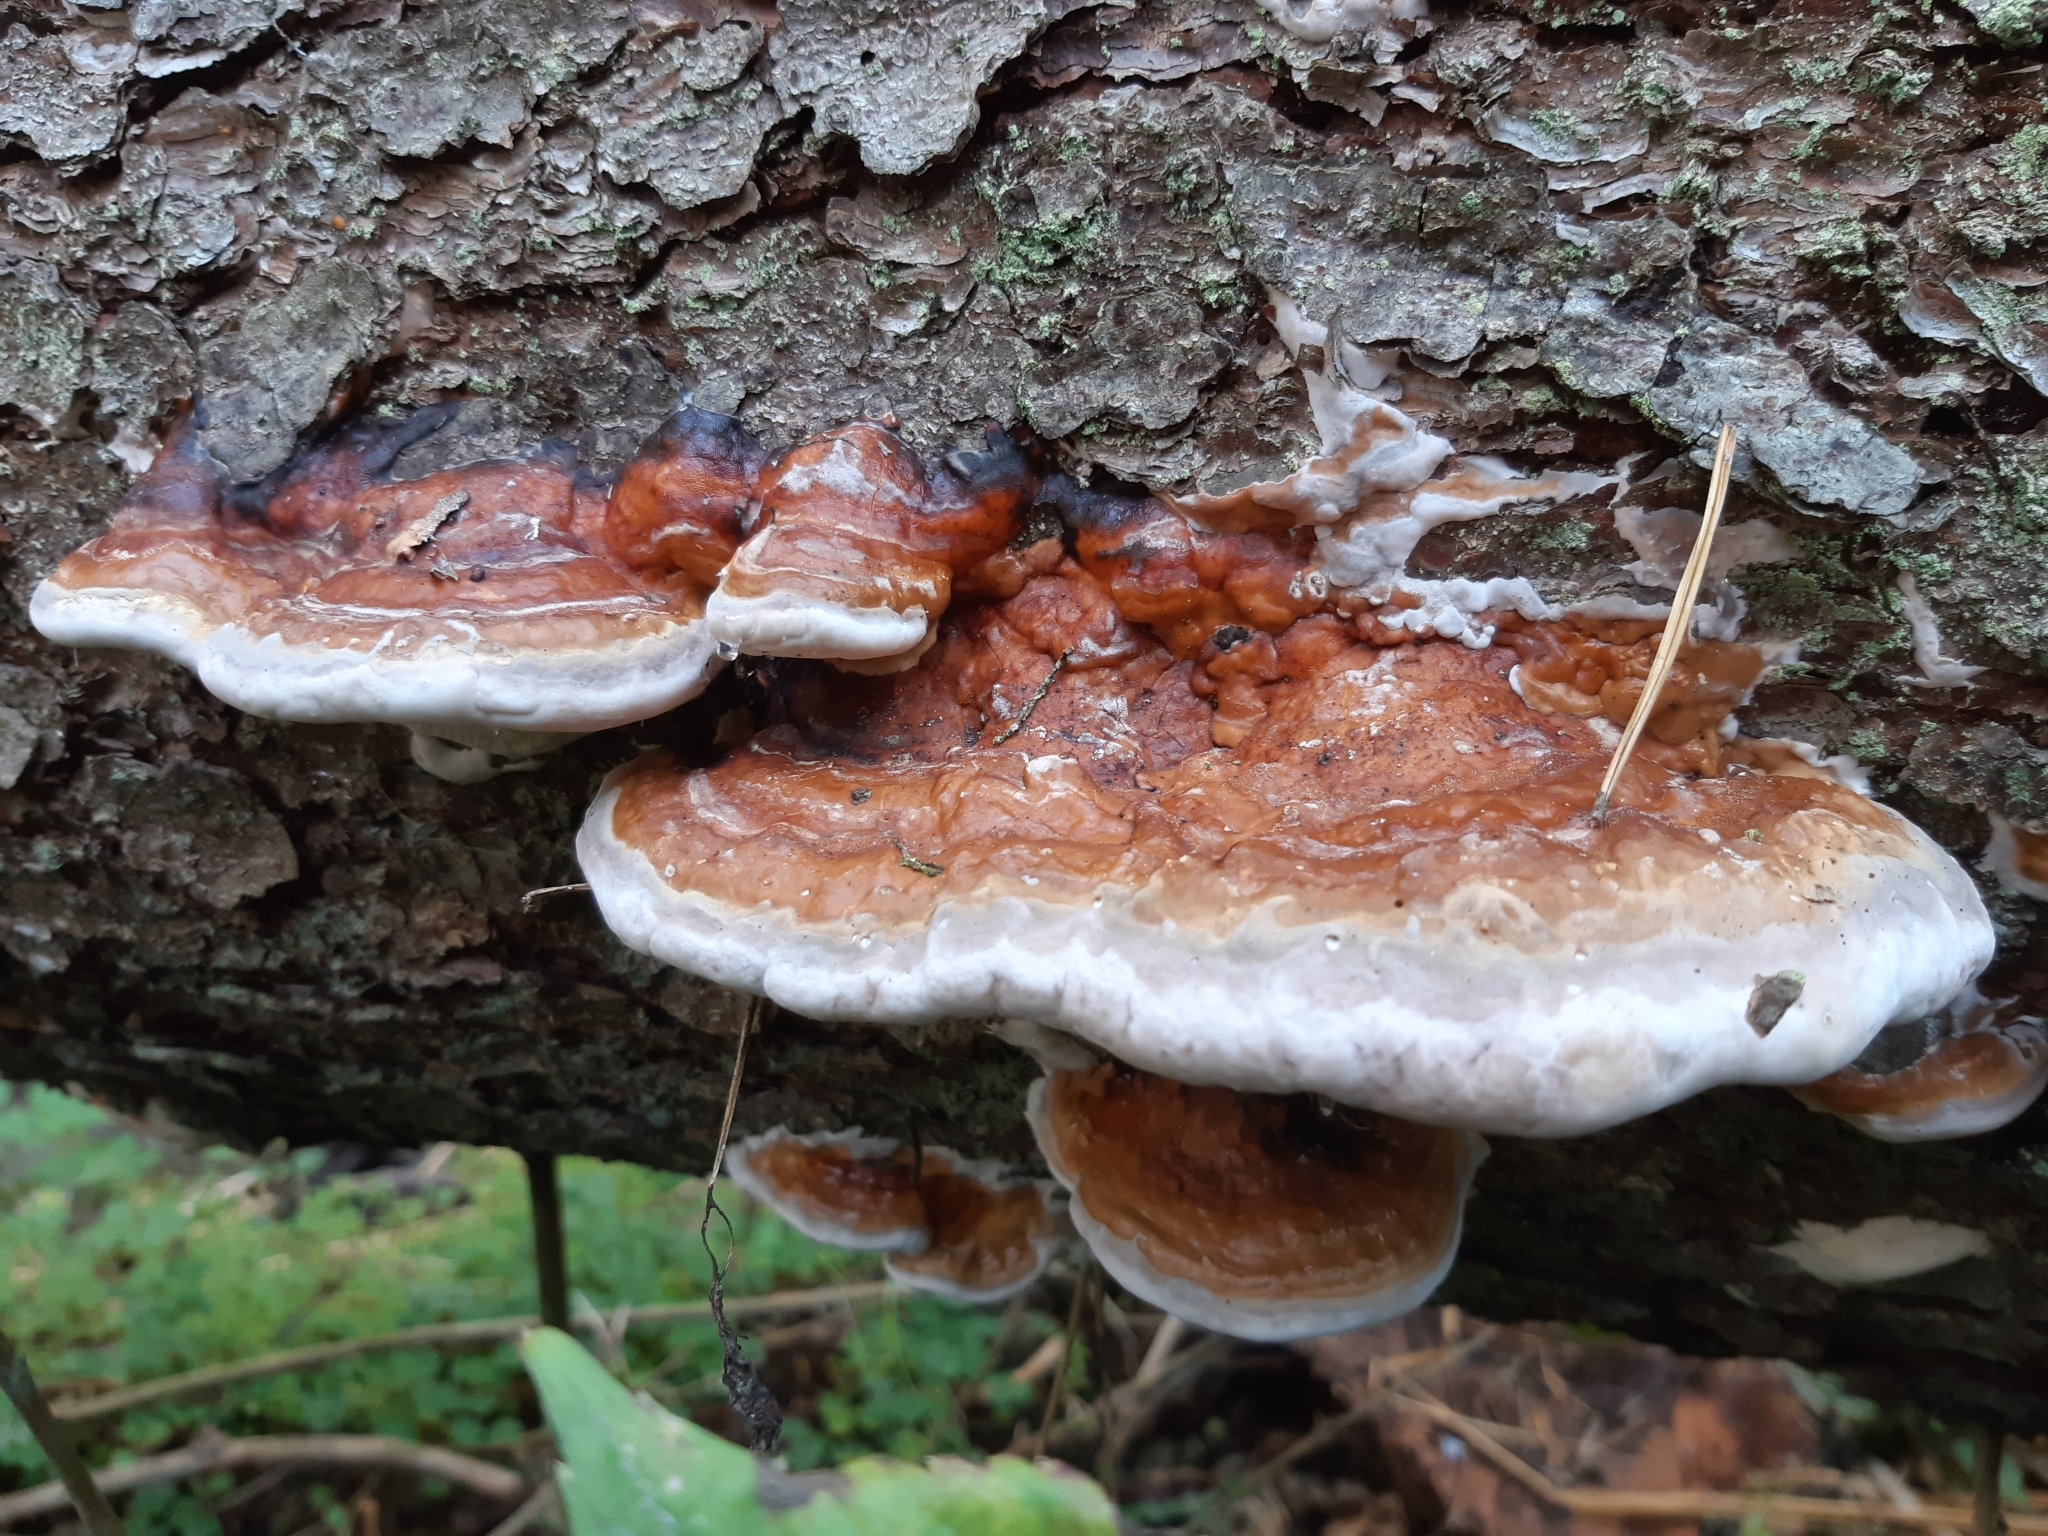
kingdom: Fungi
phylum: Basidiomycota
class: Agaricomycetes
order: Polyporales
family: Fomitopsidaceae
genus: Fomitopsis
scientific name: Fomitopsis pinicola
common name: Red-belted bracket
